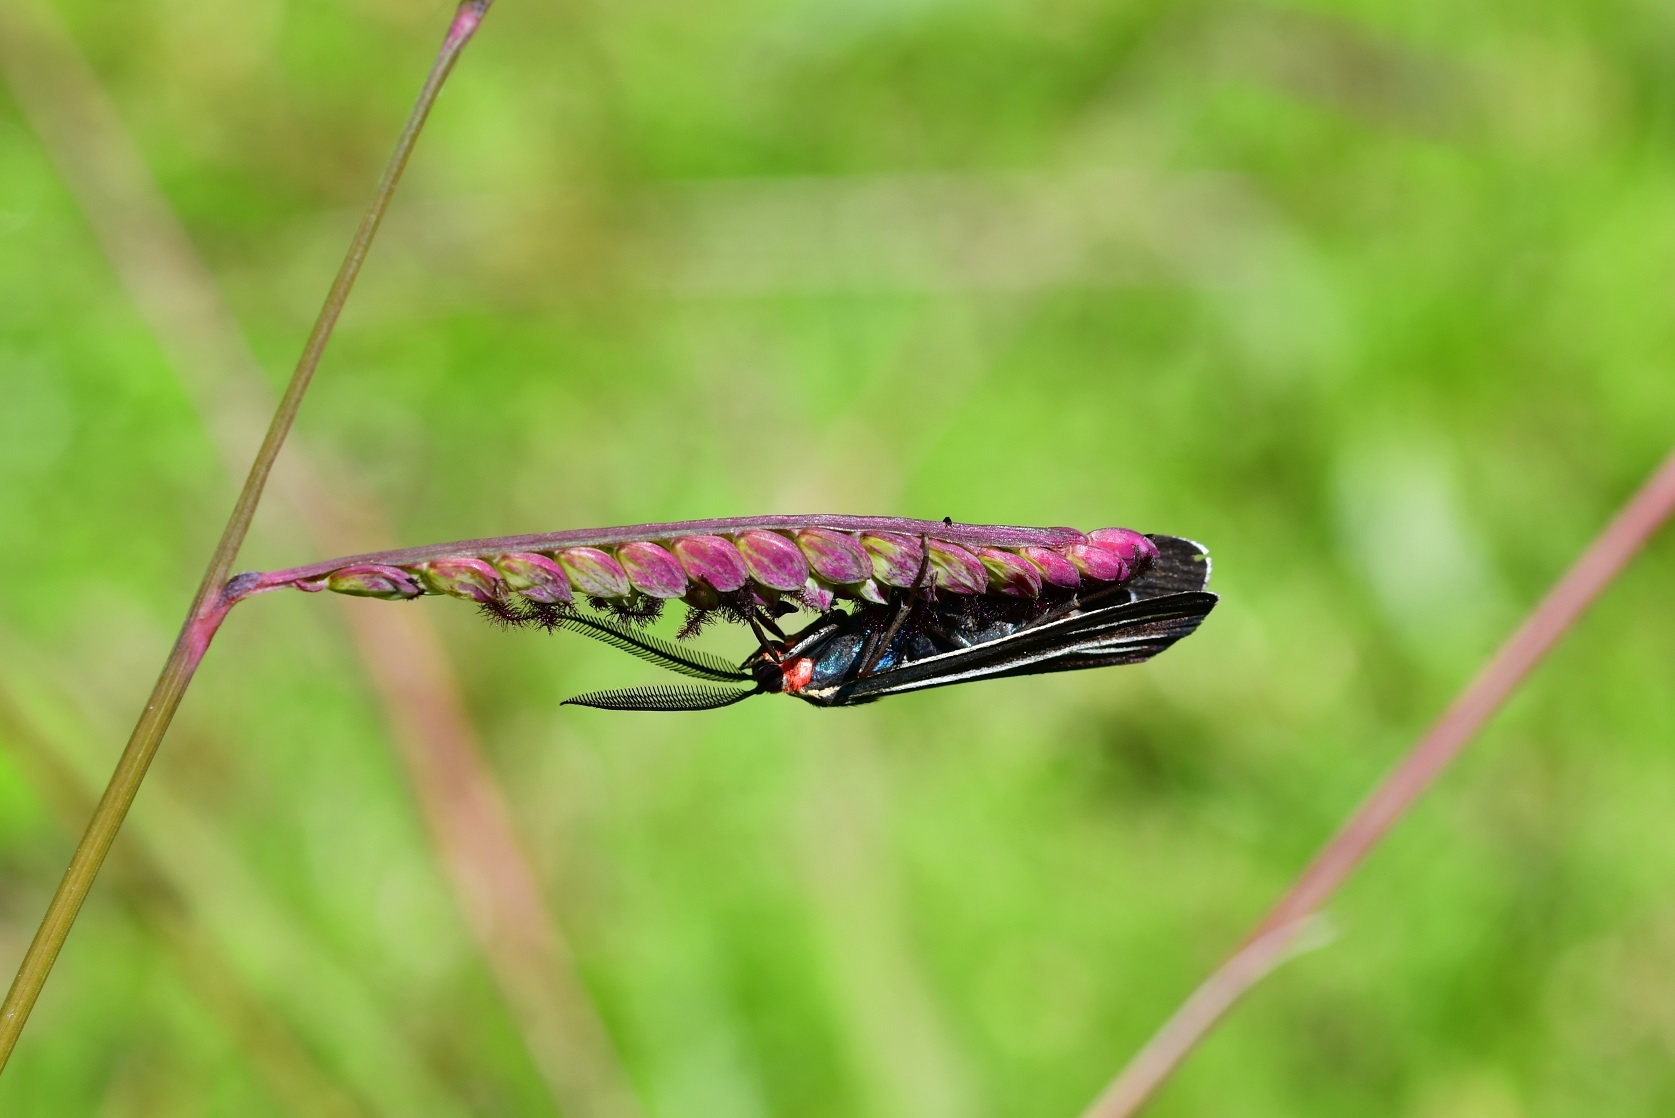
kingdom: Animalia
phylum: Arthropoda
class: Insecta
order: Lepidoptera
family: Erebidae
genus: Ctenucha
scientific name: Ctenucha venosa
